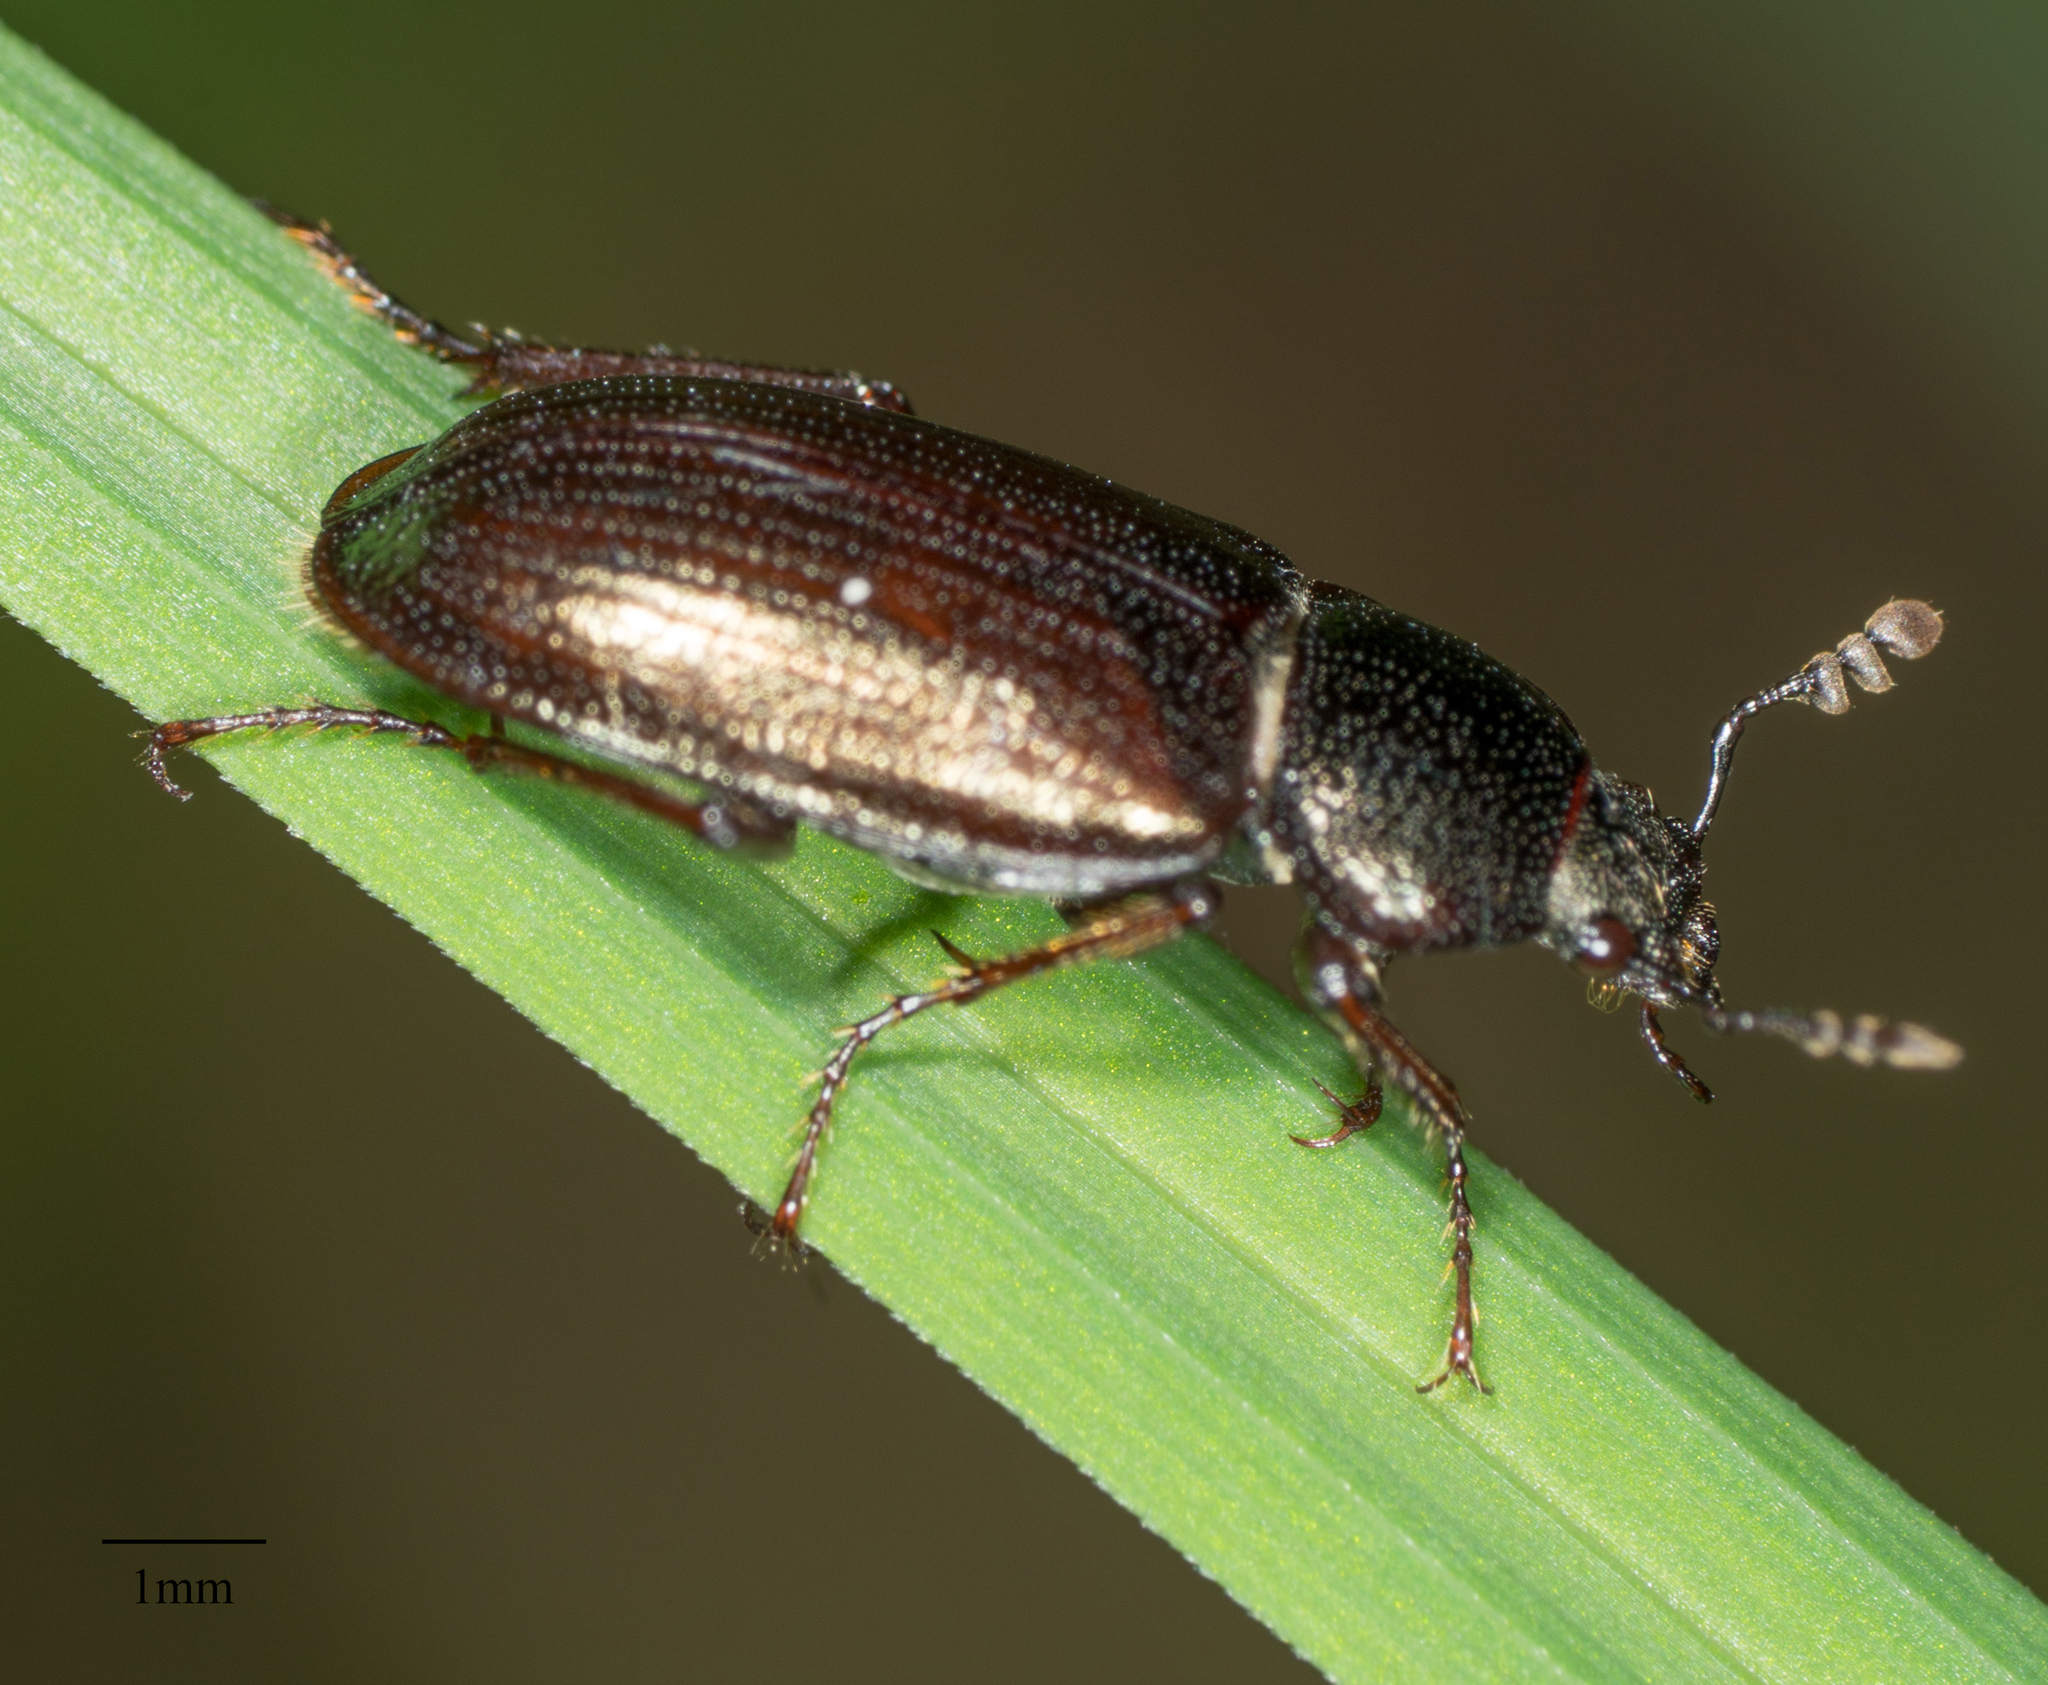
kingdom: Animalia
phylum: Arthropoda
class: Insecta
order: Coleoptera
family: Lucanidae
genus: Platyceroides
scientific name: Platyceroides aeneus
